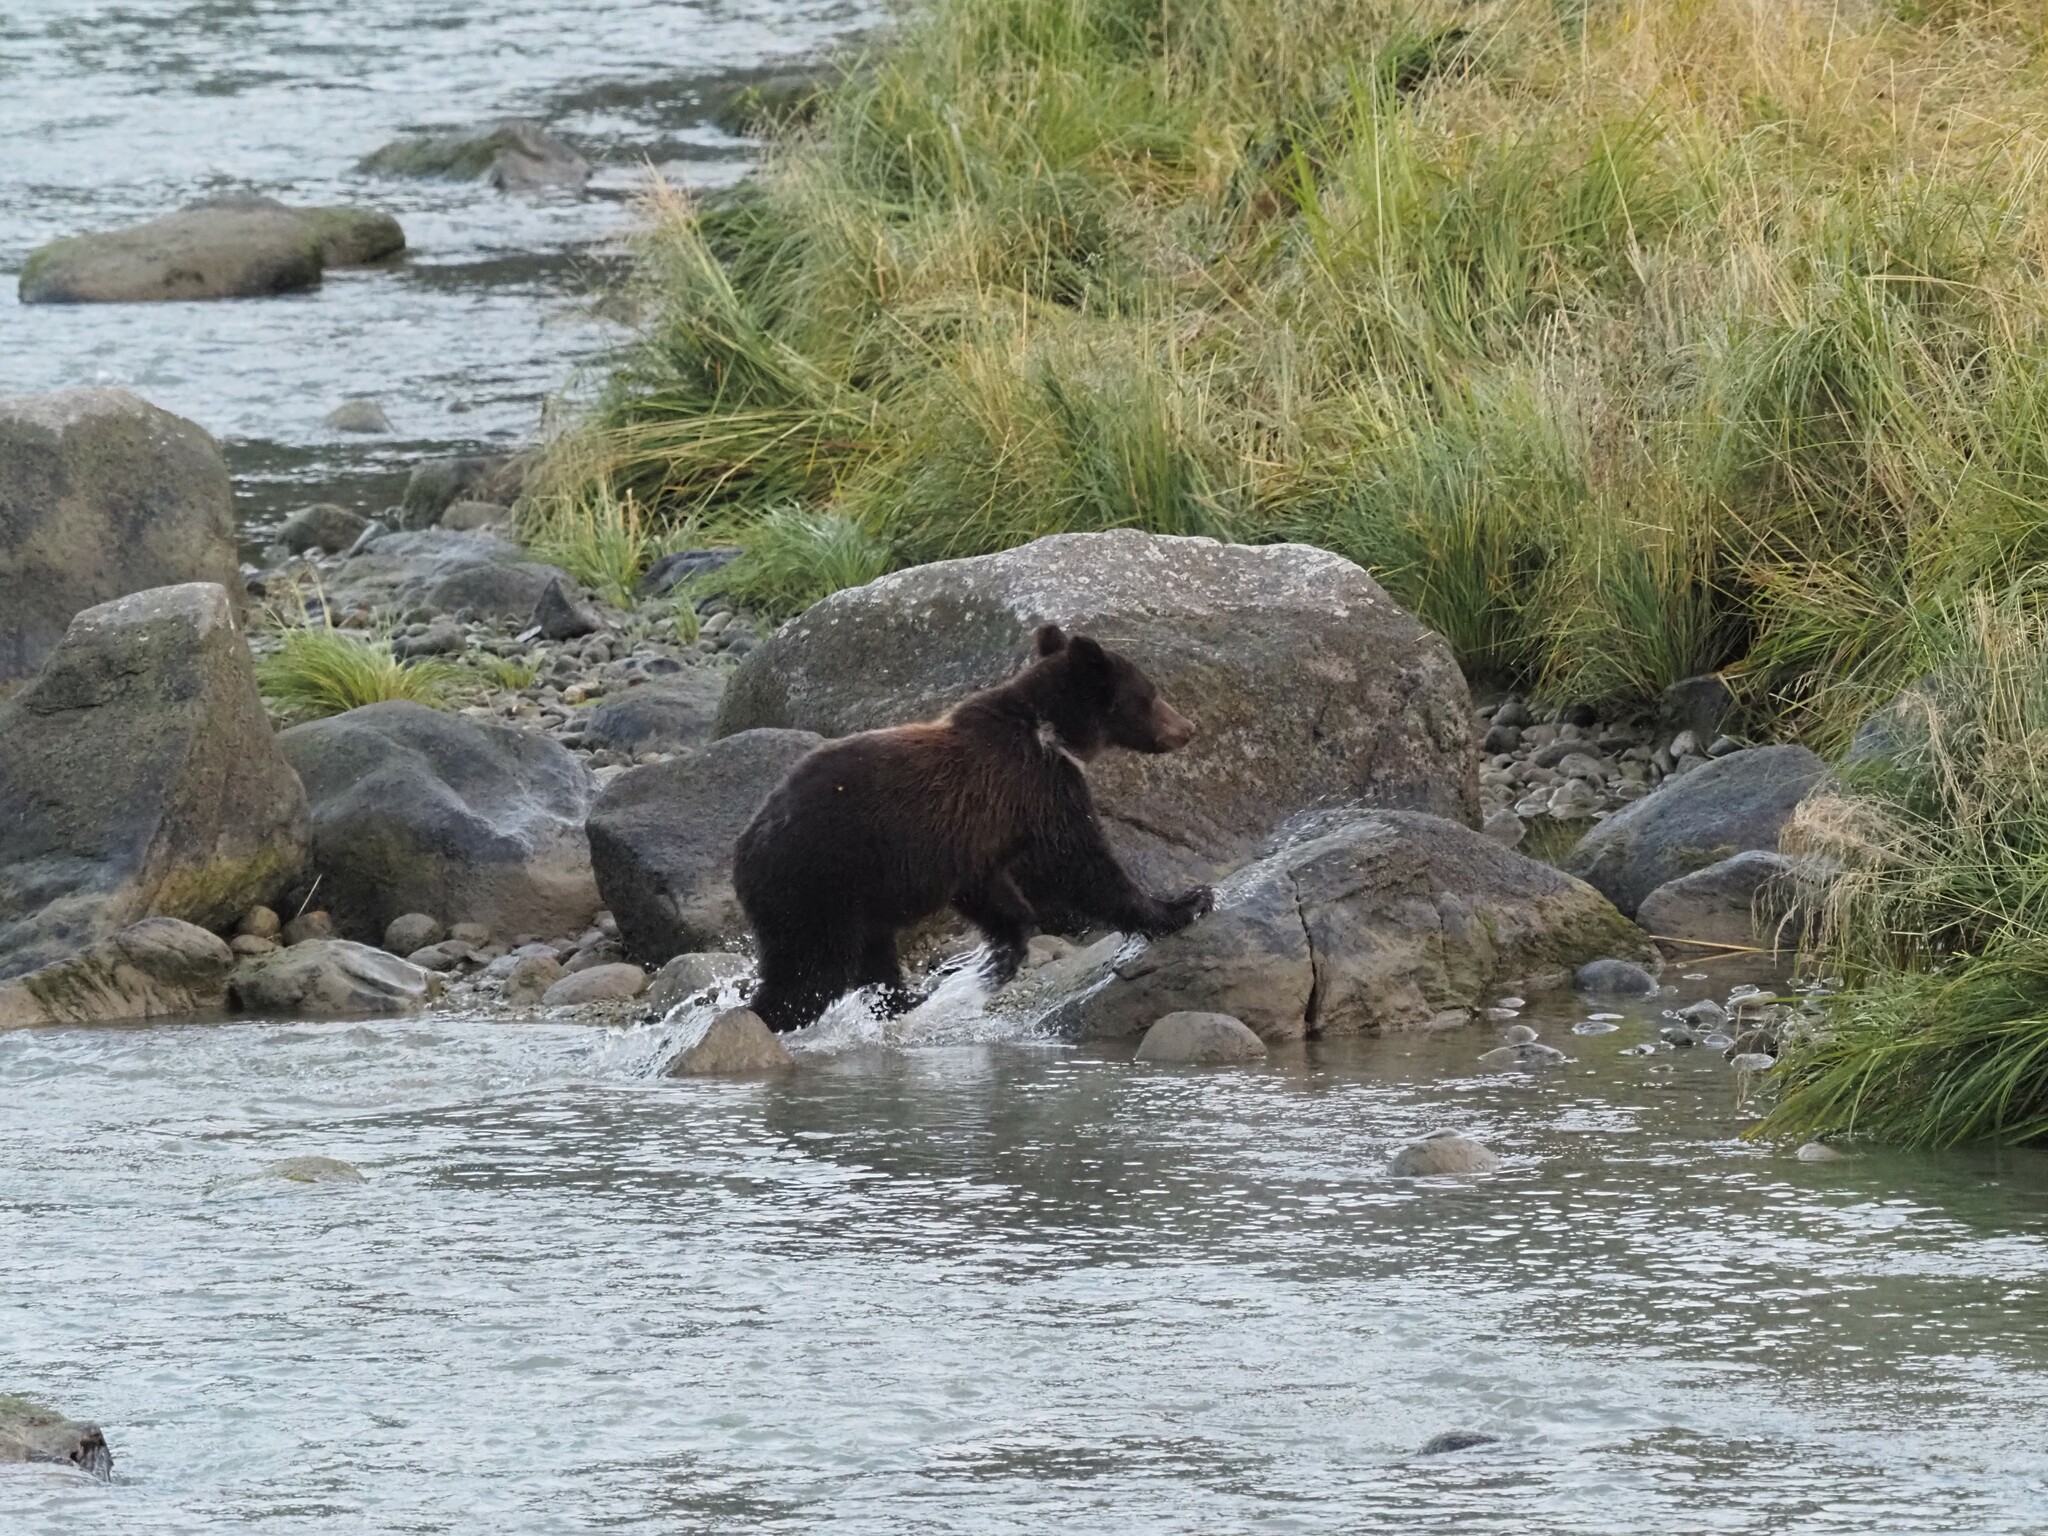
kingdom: Animalia
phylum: Chordata
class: Mammalia
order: Carnivora
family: Ursidae
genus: Ursus
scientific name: Ursus arctos
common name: Brown bear
